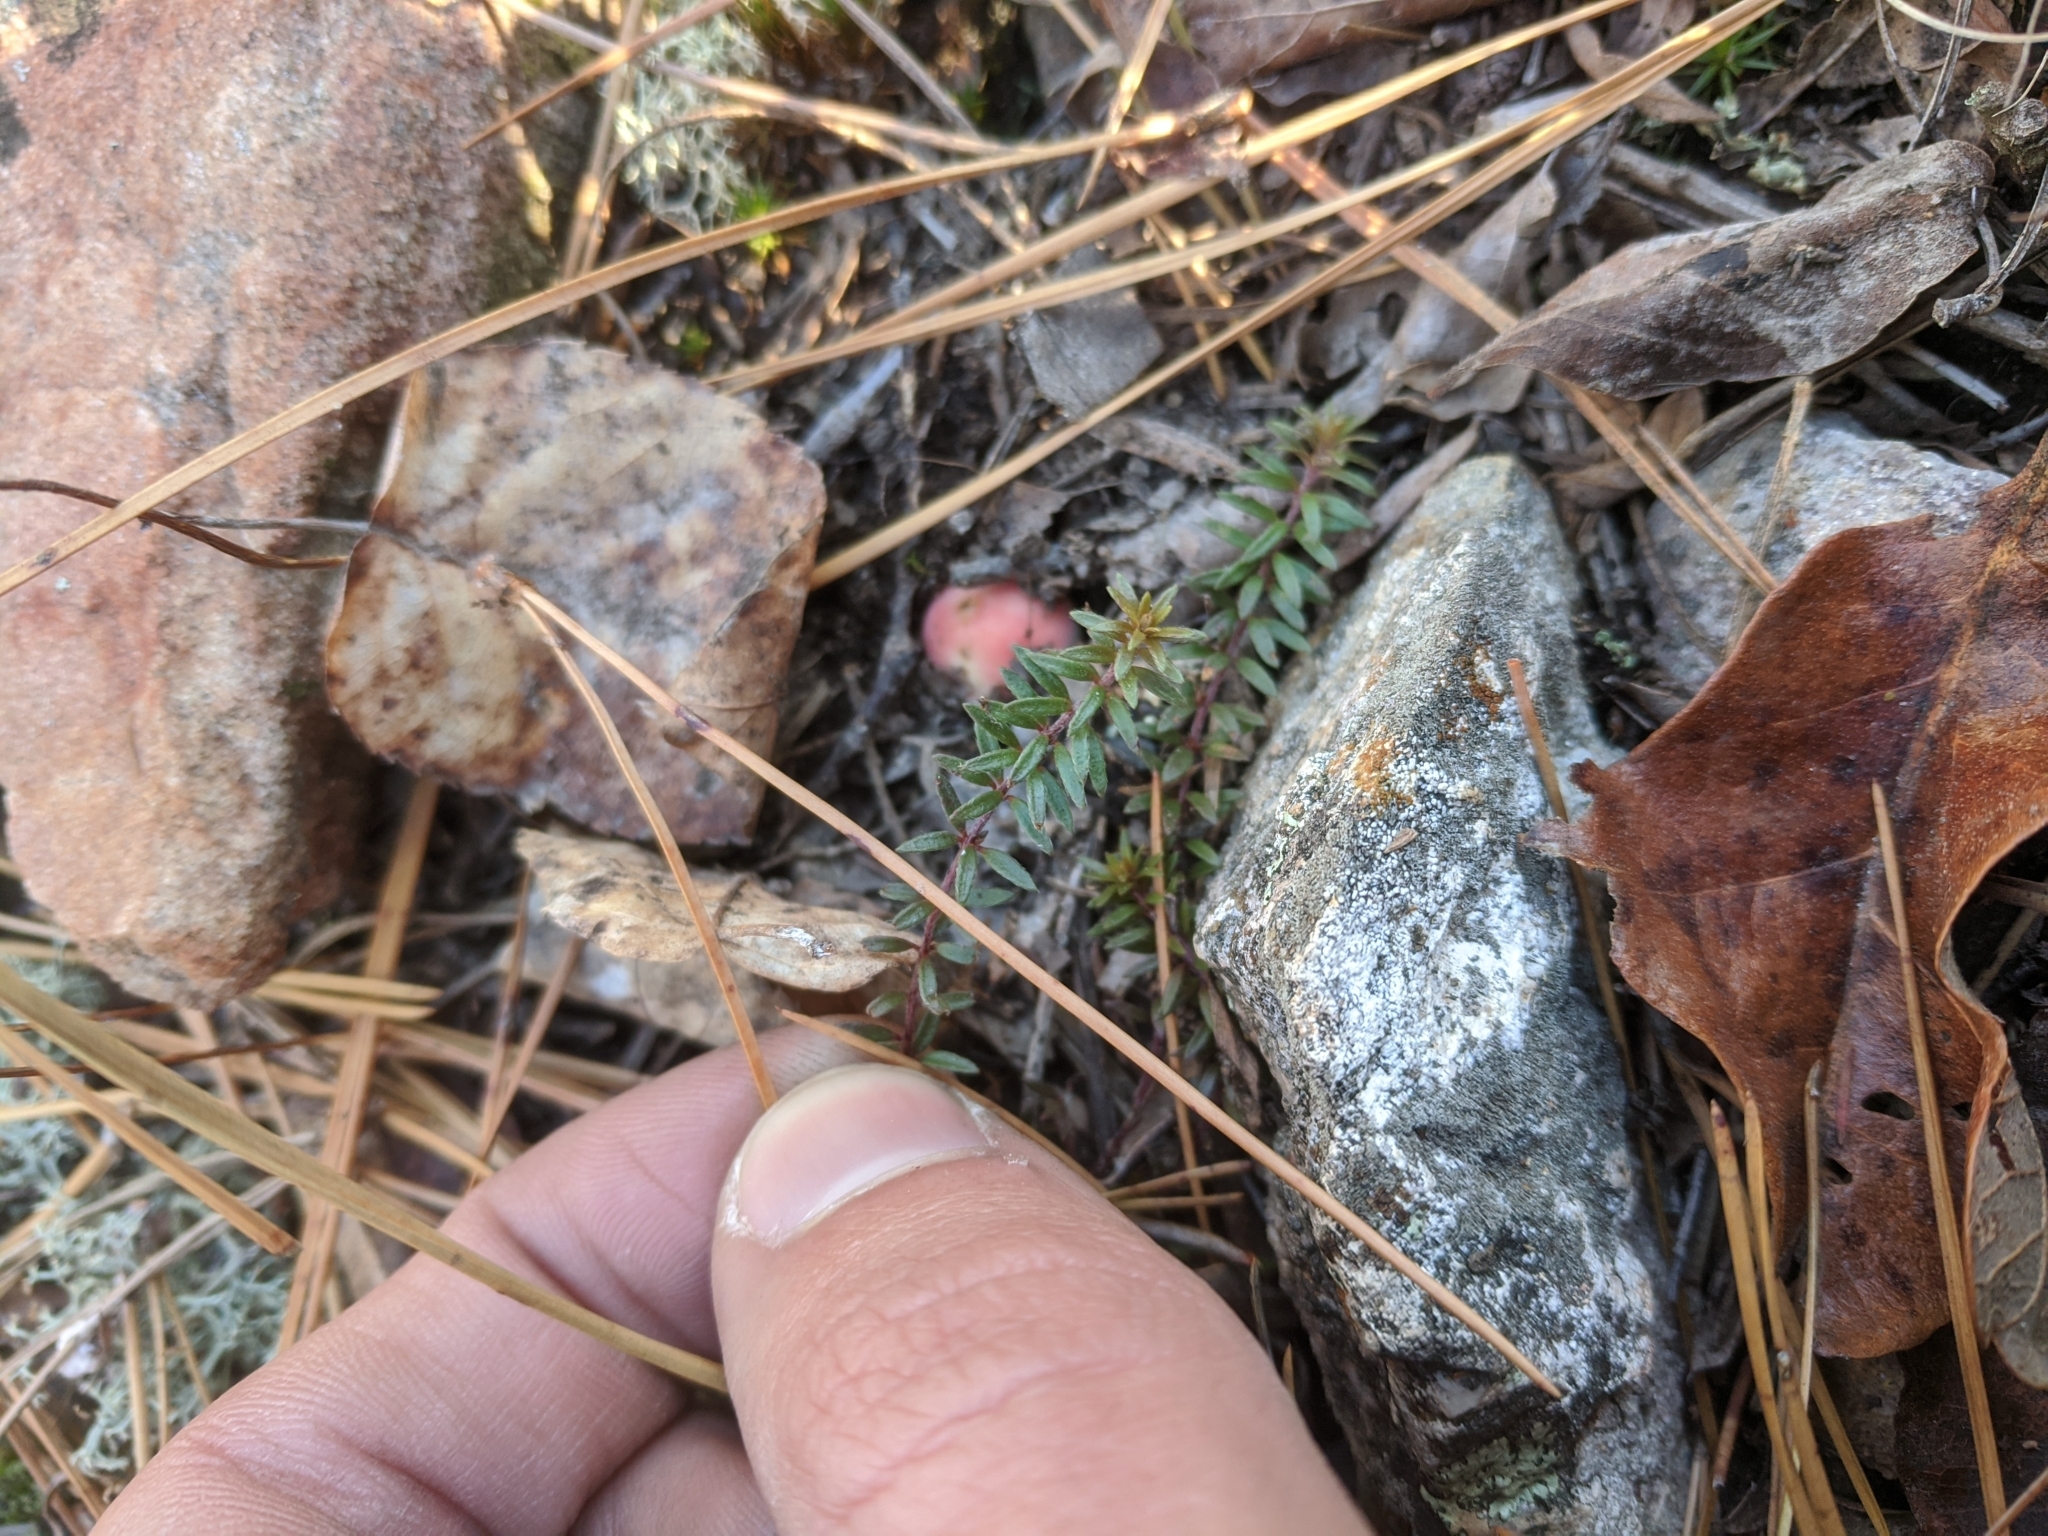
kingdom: Plantae
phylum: Tracheophyta
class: Magnoliopsida
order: Malvales
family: Cistaceae
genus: Lechea
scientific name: Lechea tenuifolia
